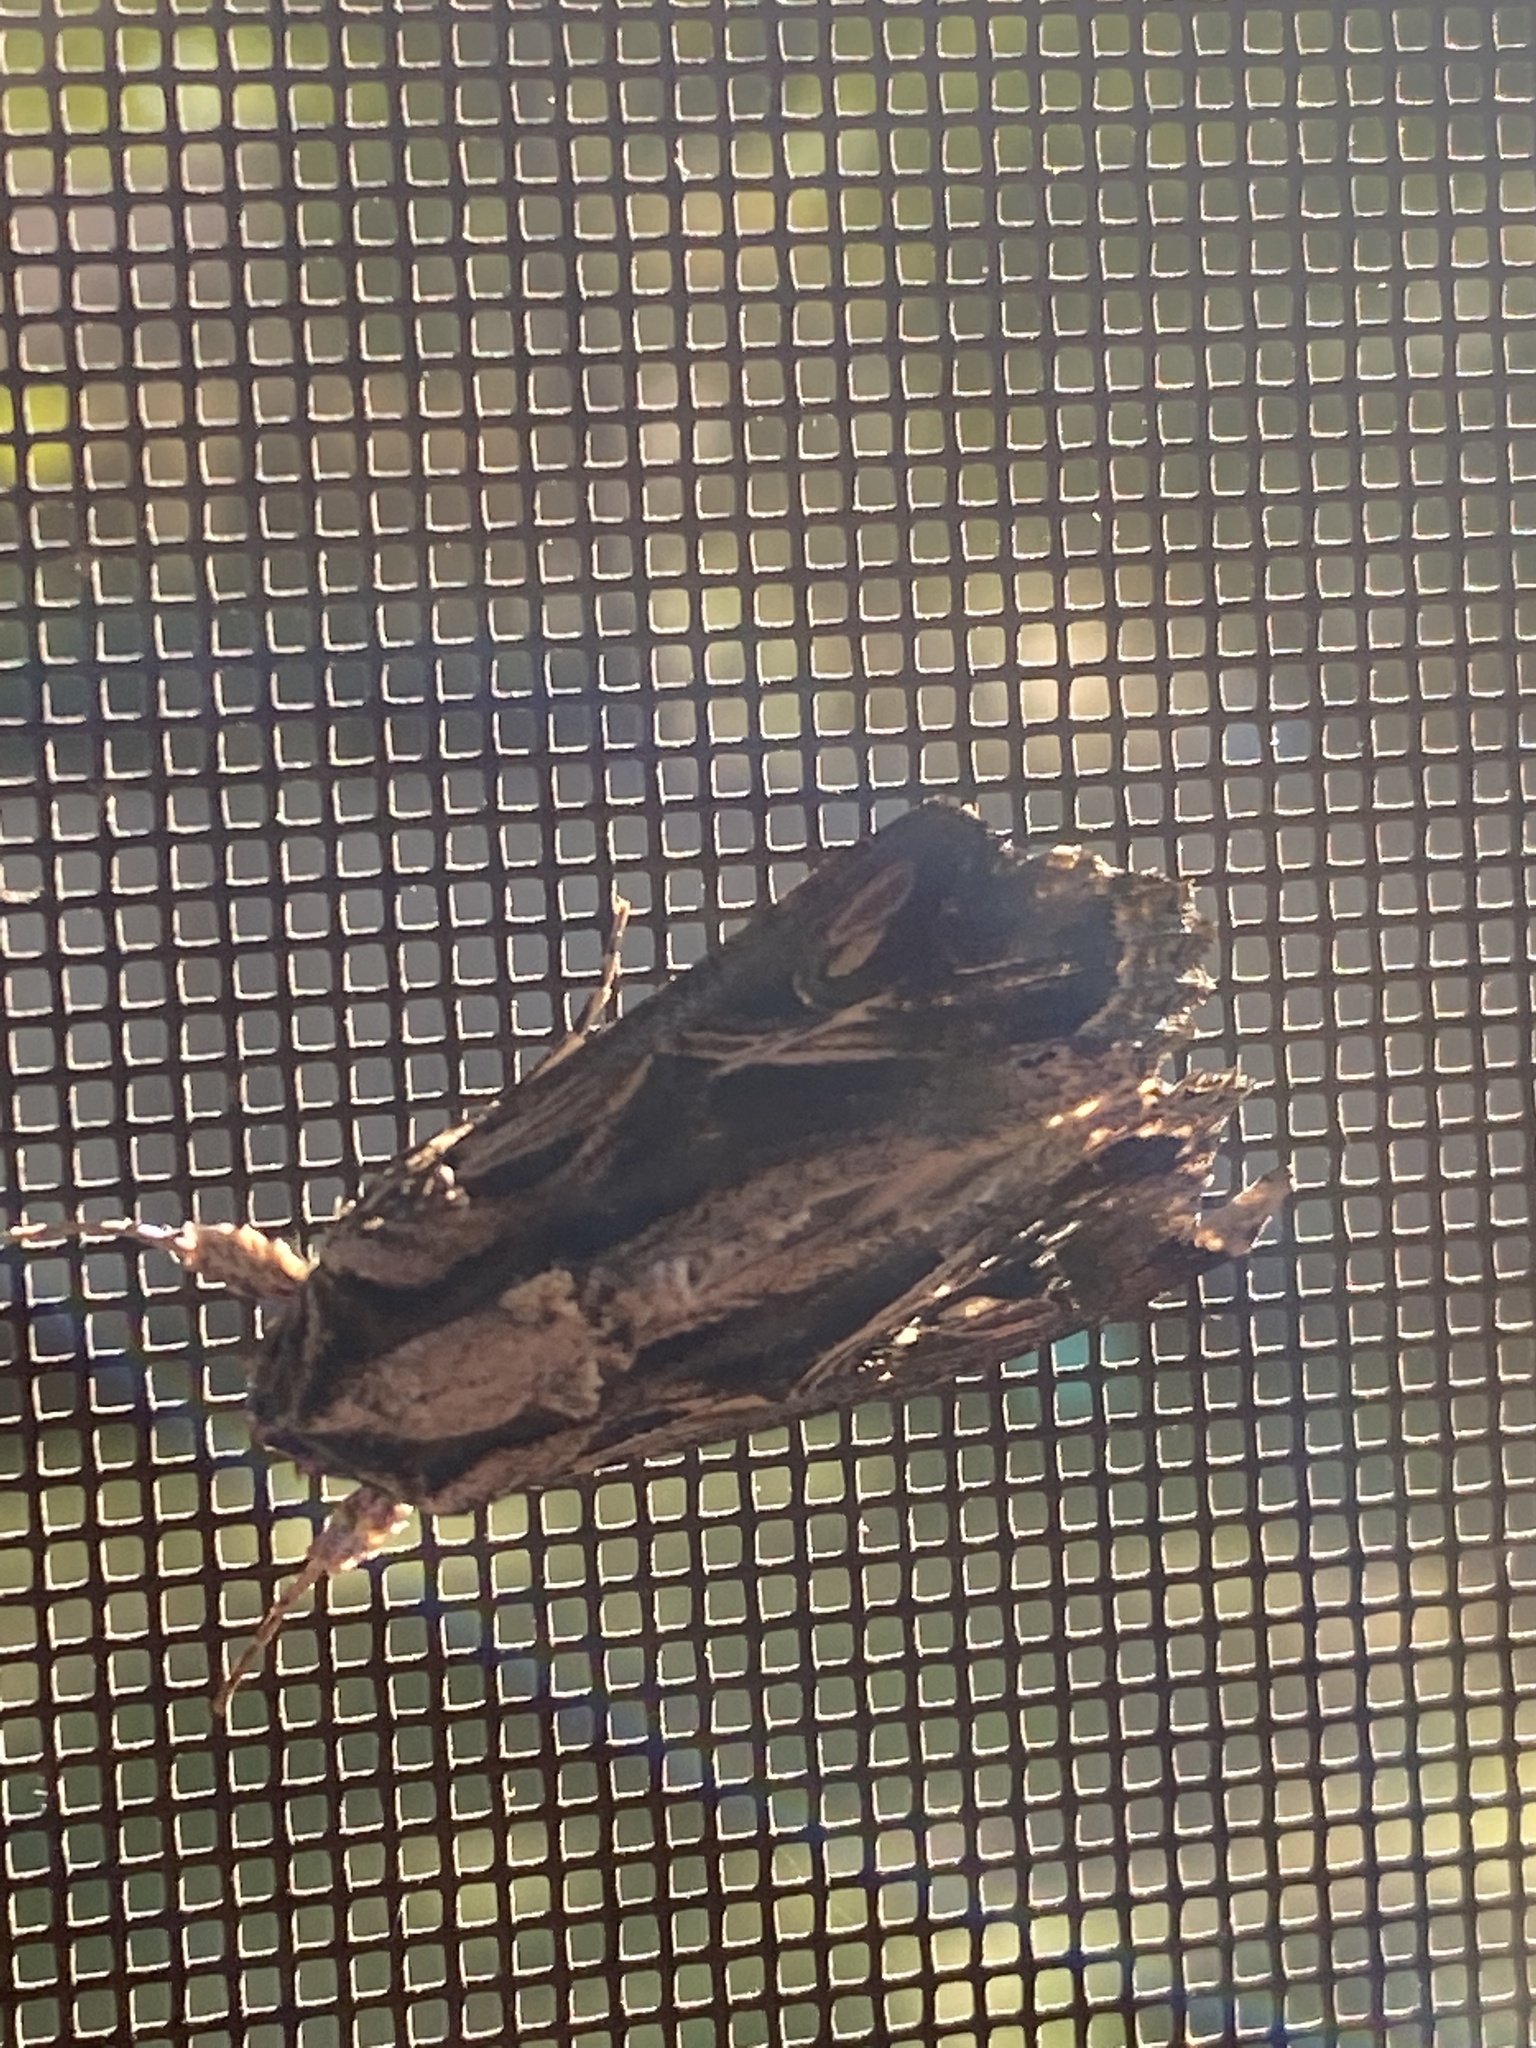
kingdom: Animalia
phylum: Arthropoda
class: Insecta
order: Lepidoptera
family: Noctuidae
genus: Spodoptera
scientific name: Spodoptera dolichos
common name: Sweetpotato armyworm
